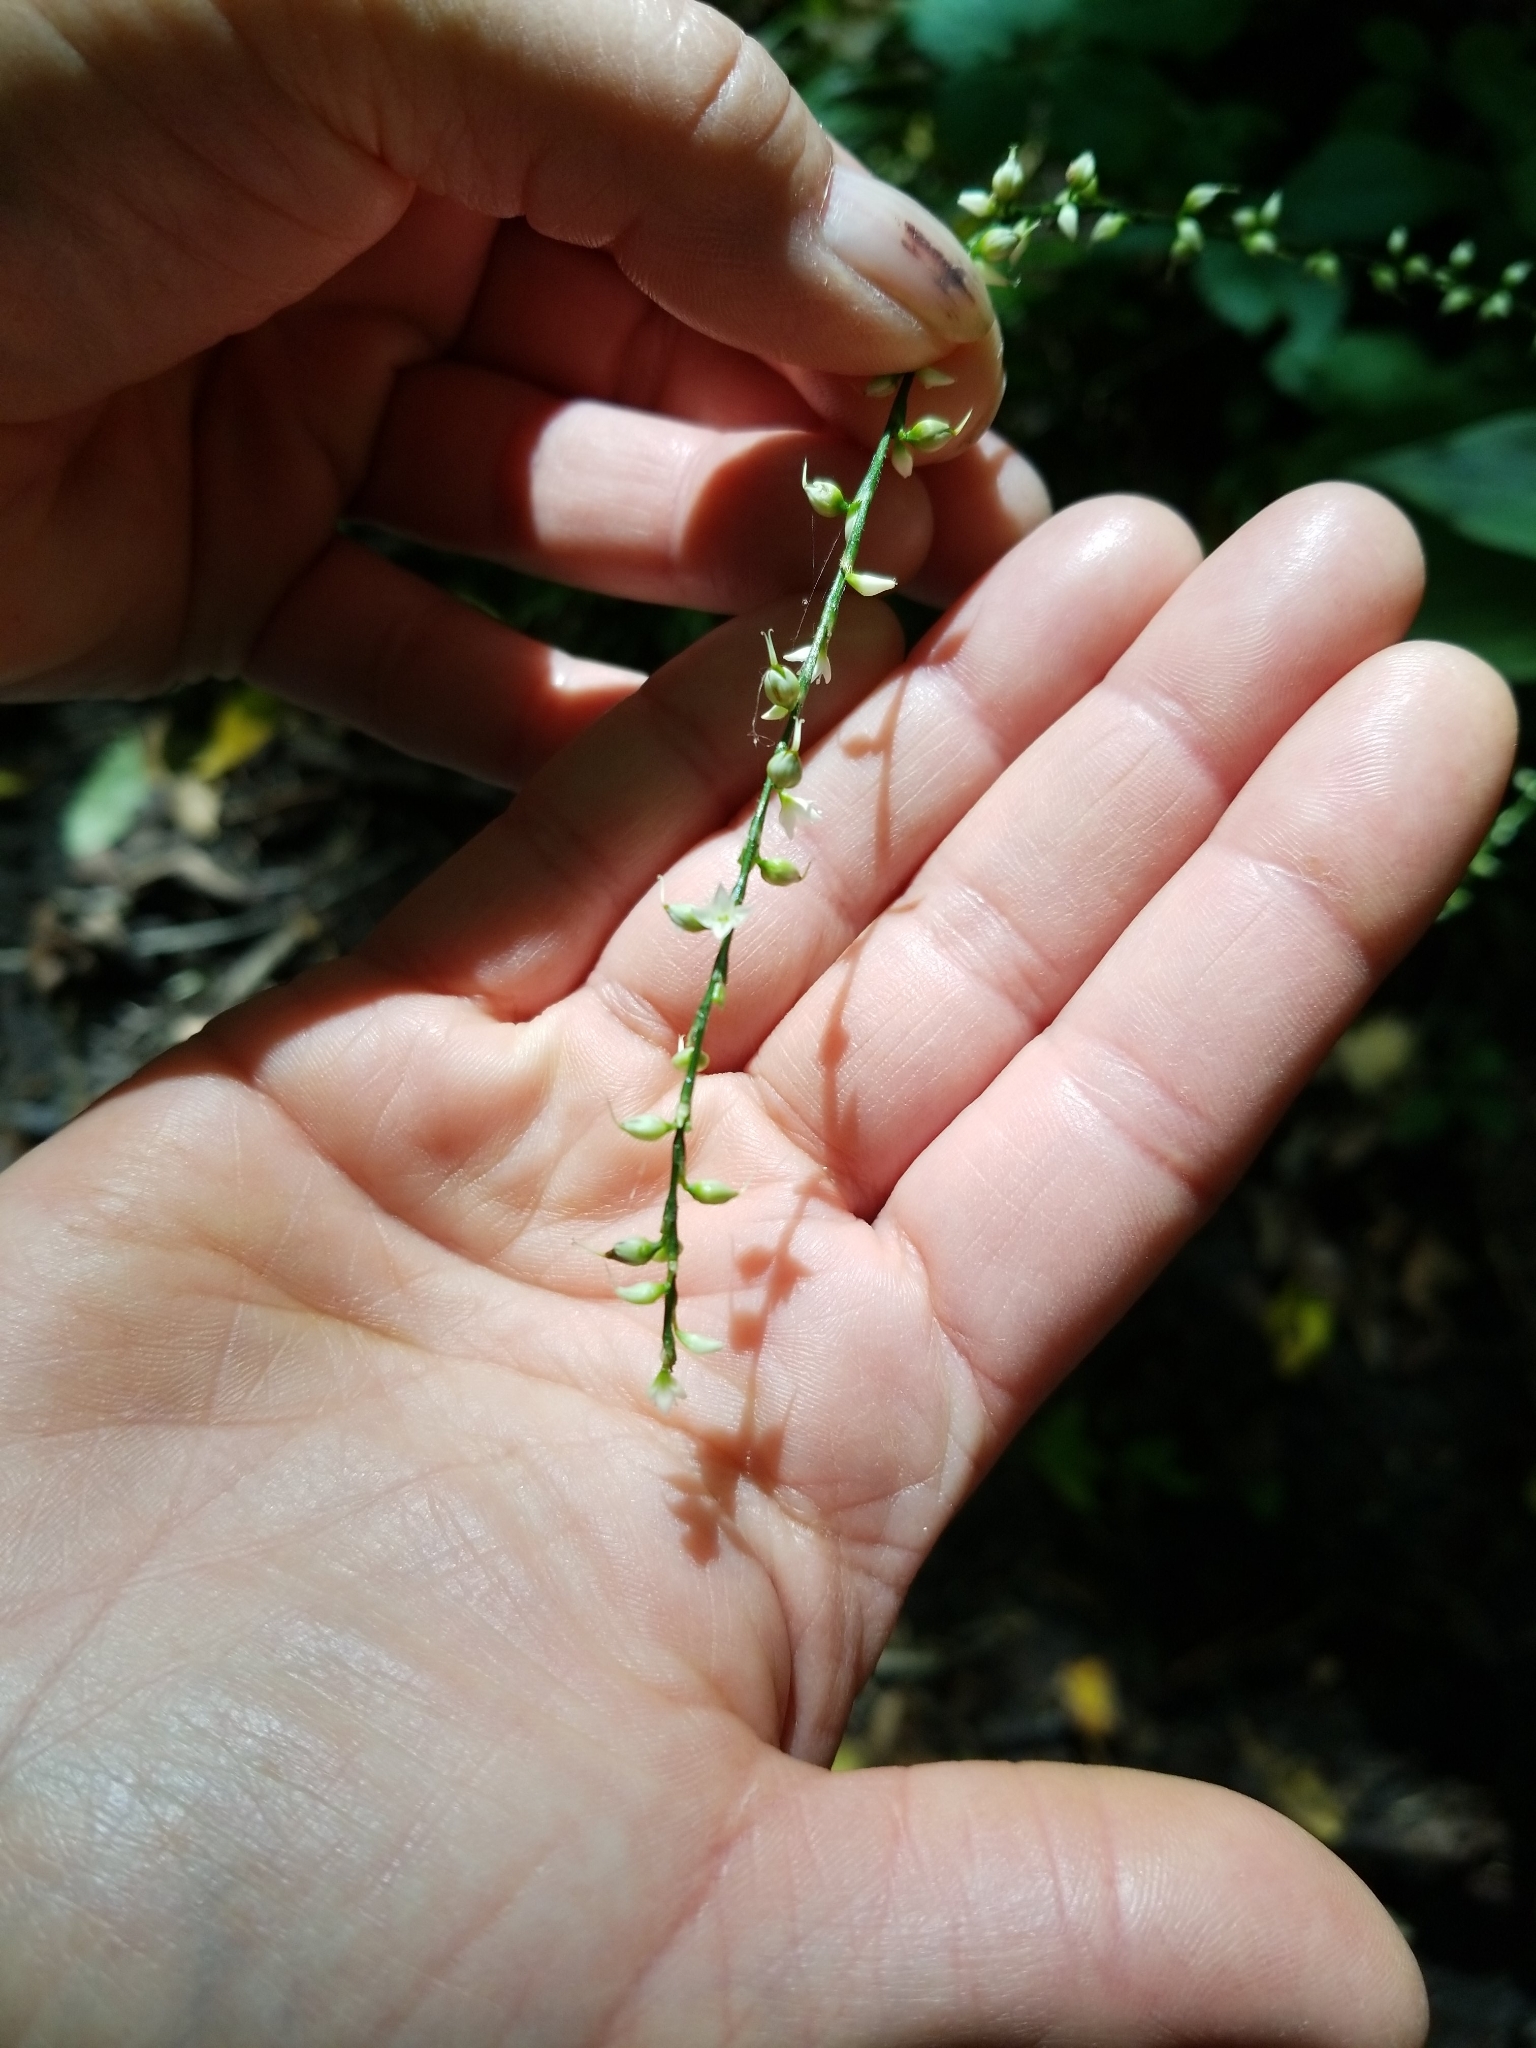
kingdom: Plantae
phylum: Tracheophyta
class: Magnoliopsida
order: Caryophyllales
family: Polygonaceae
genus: Persicaria
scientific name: Persicaria virginiana
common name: Jumpseed
